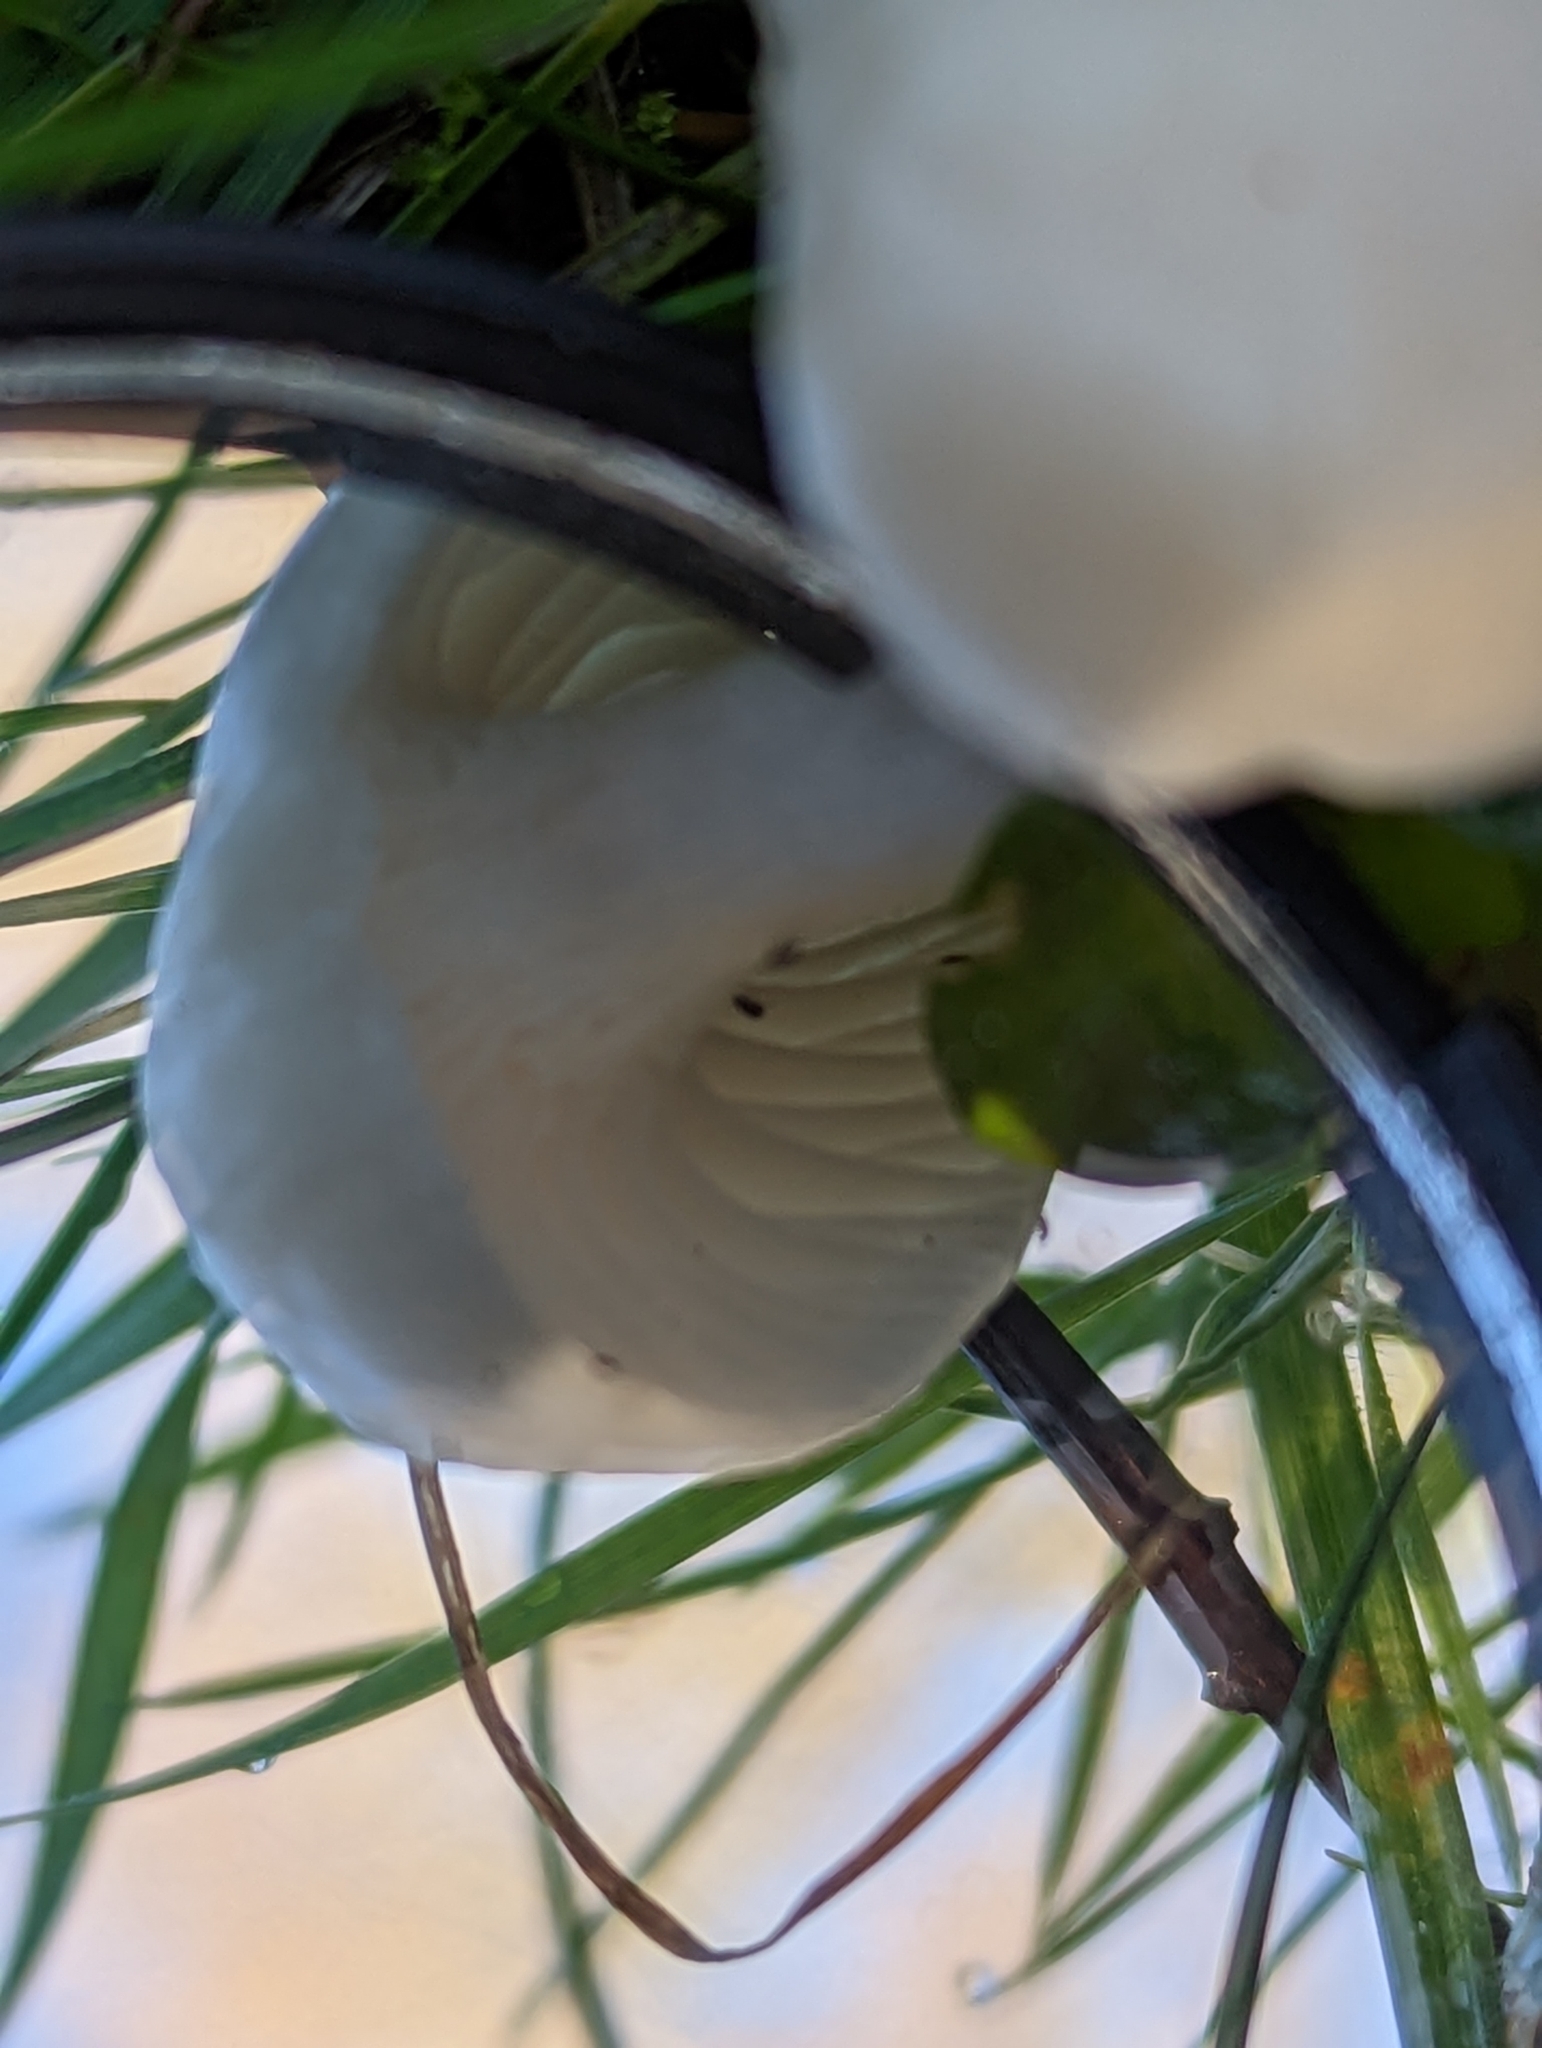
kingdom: Fungi
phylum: Basidiomycota
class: Agaricomycetes
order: Agaricales
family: Hygrophoraceae
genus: Cuphophyllus
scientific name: Cuphophyllus virgineus
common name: Snowy waxcap
